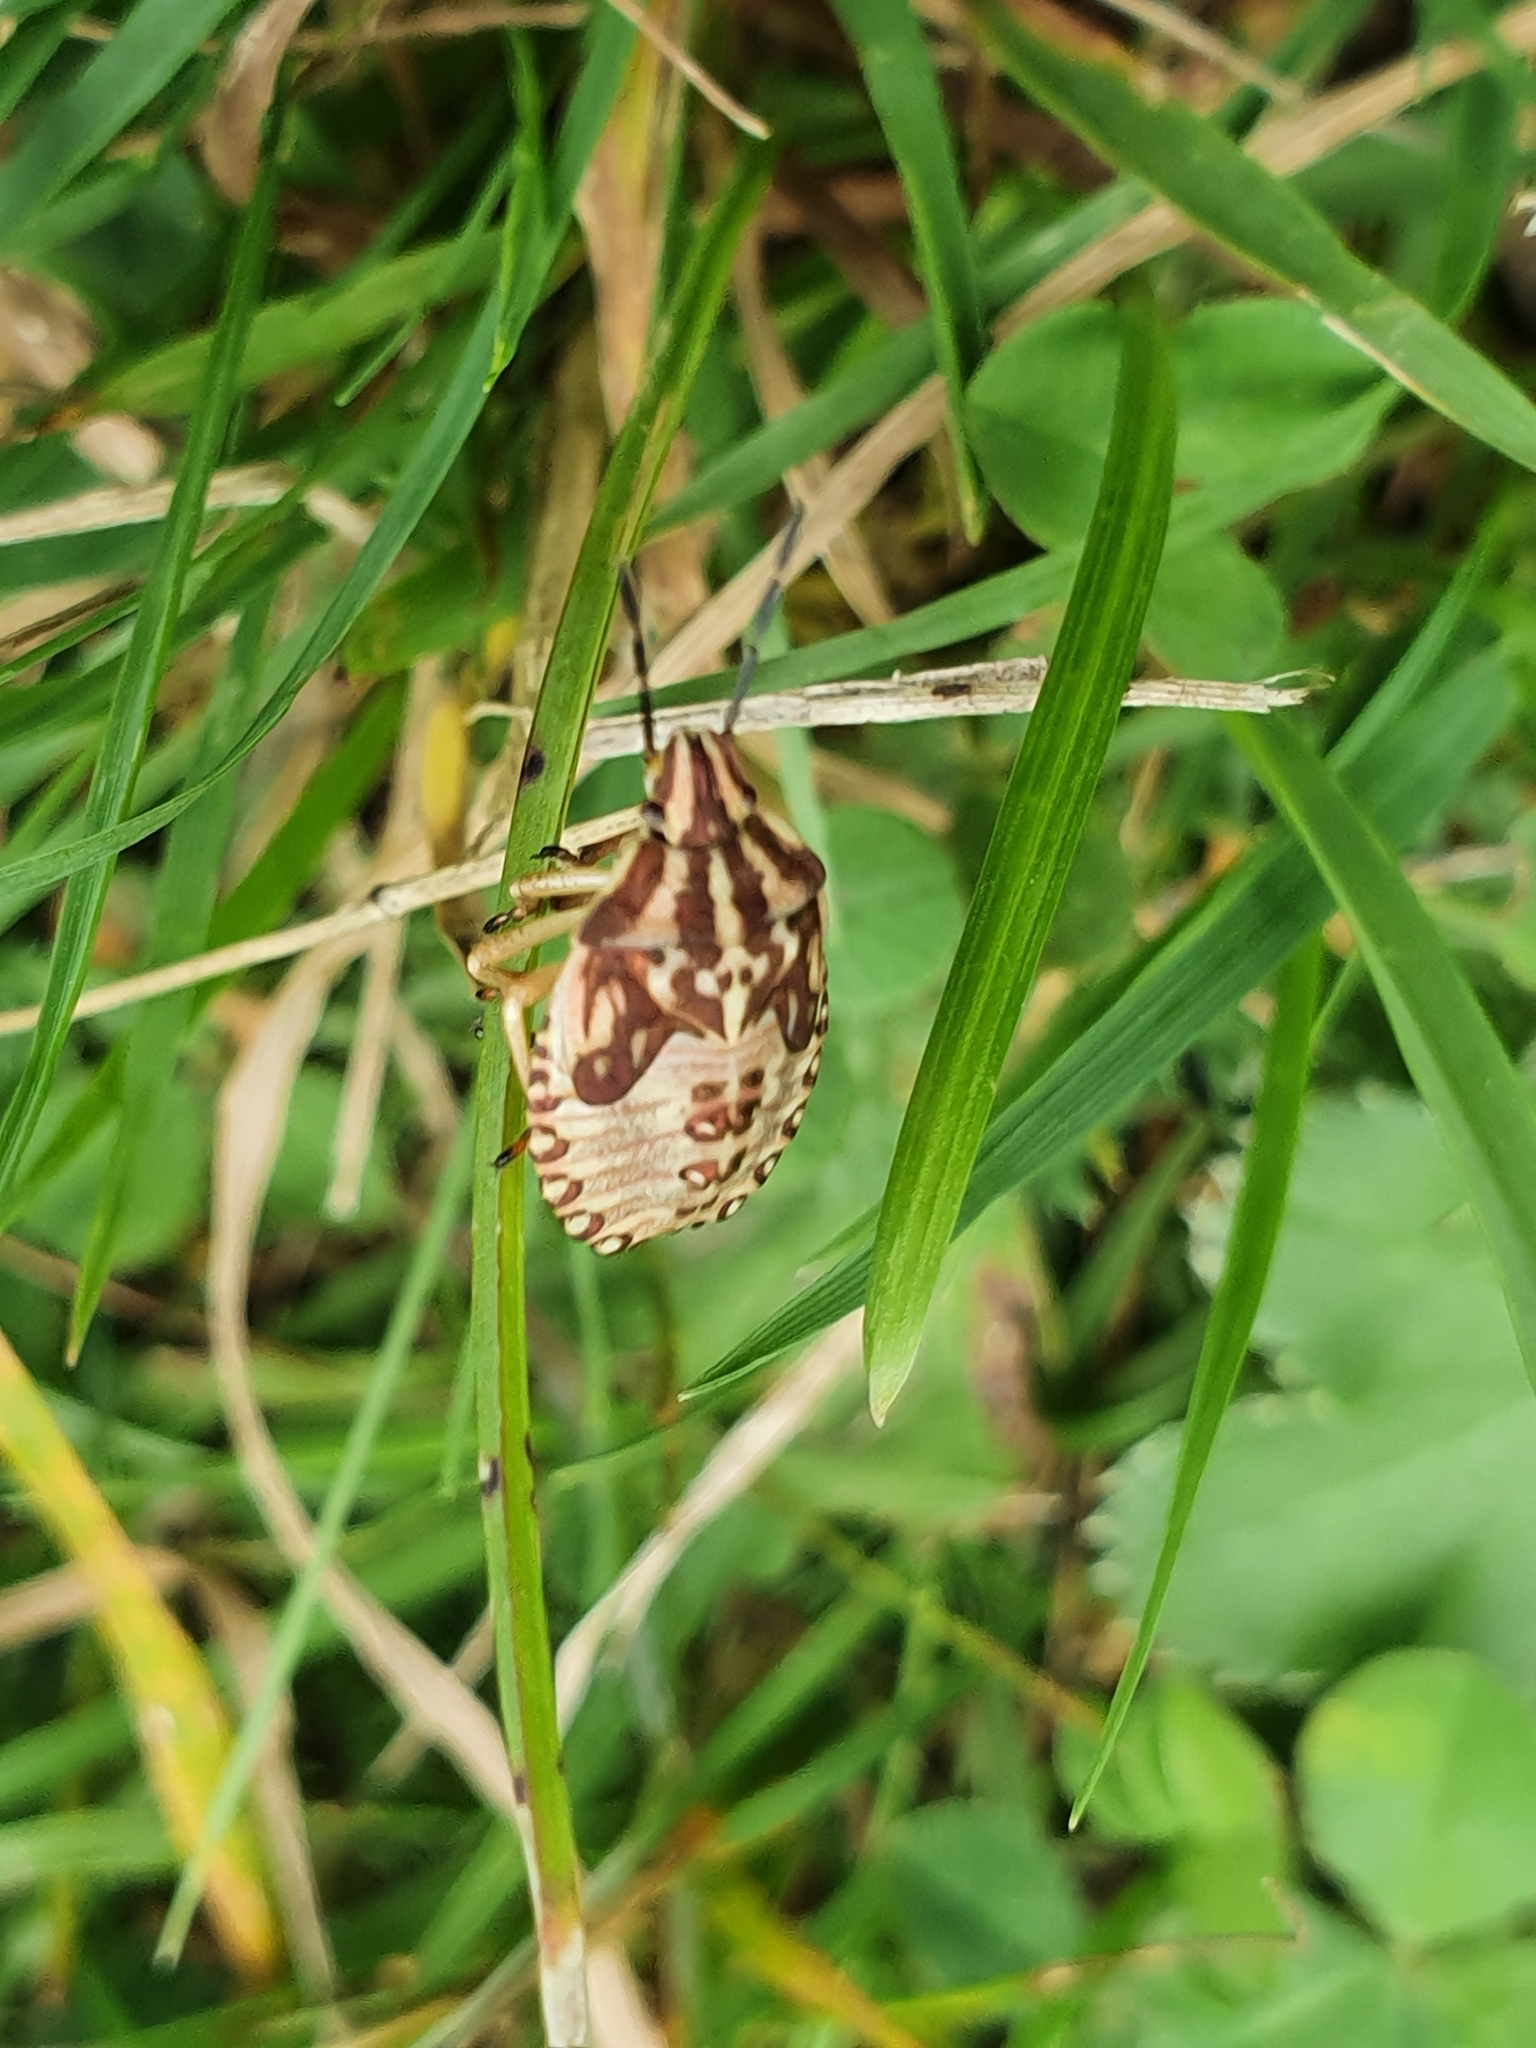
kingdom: Animalia
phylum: Arthropoda
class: Insecta
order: Hemiptera
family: Pentatomidae
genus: Carpocoris
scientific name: Carpocoris purpureipennis
